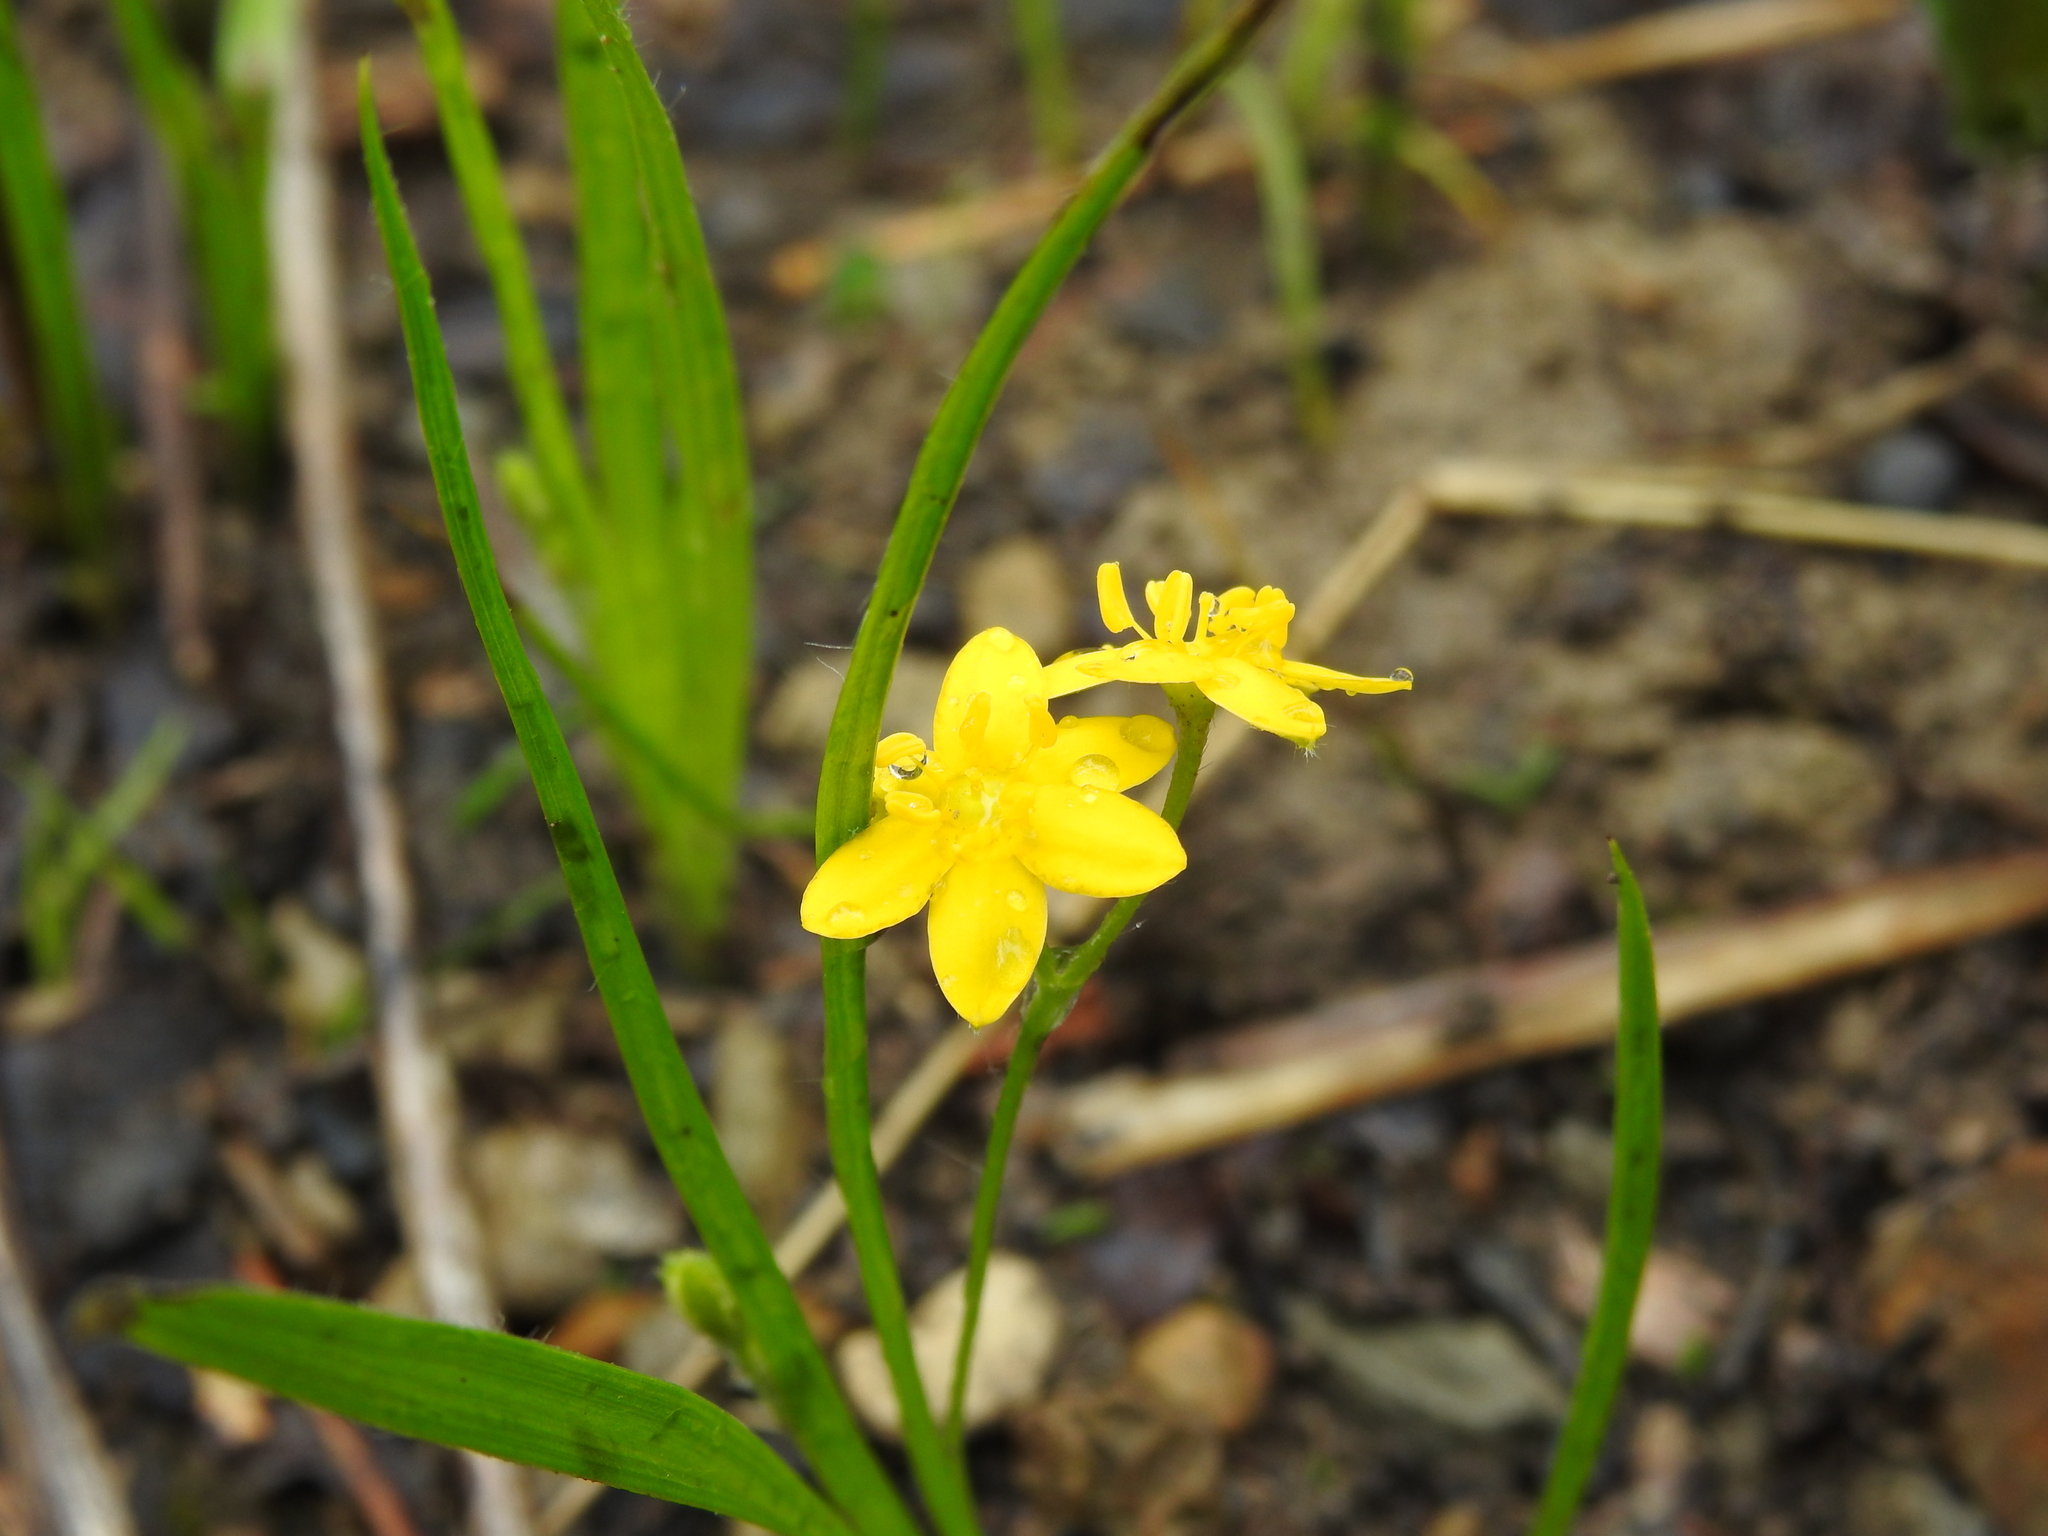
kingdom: Plantae
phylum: Tracheophyta
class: Liliopsida
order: Asparagales
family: Hypoxidaceae
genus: Hypoxis
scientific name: Hypoxis hirsuta
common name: Common goldstar
